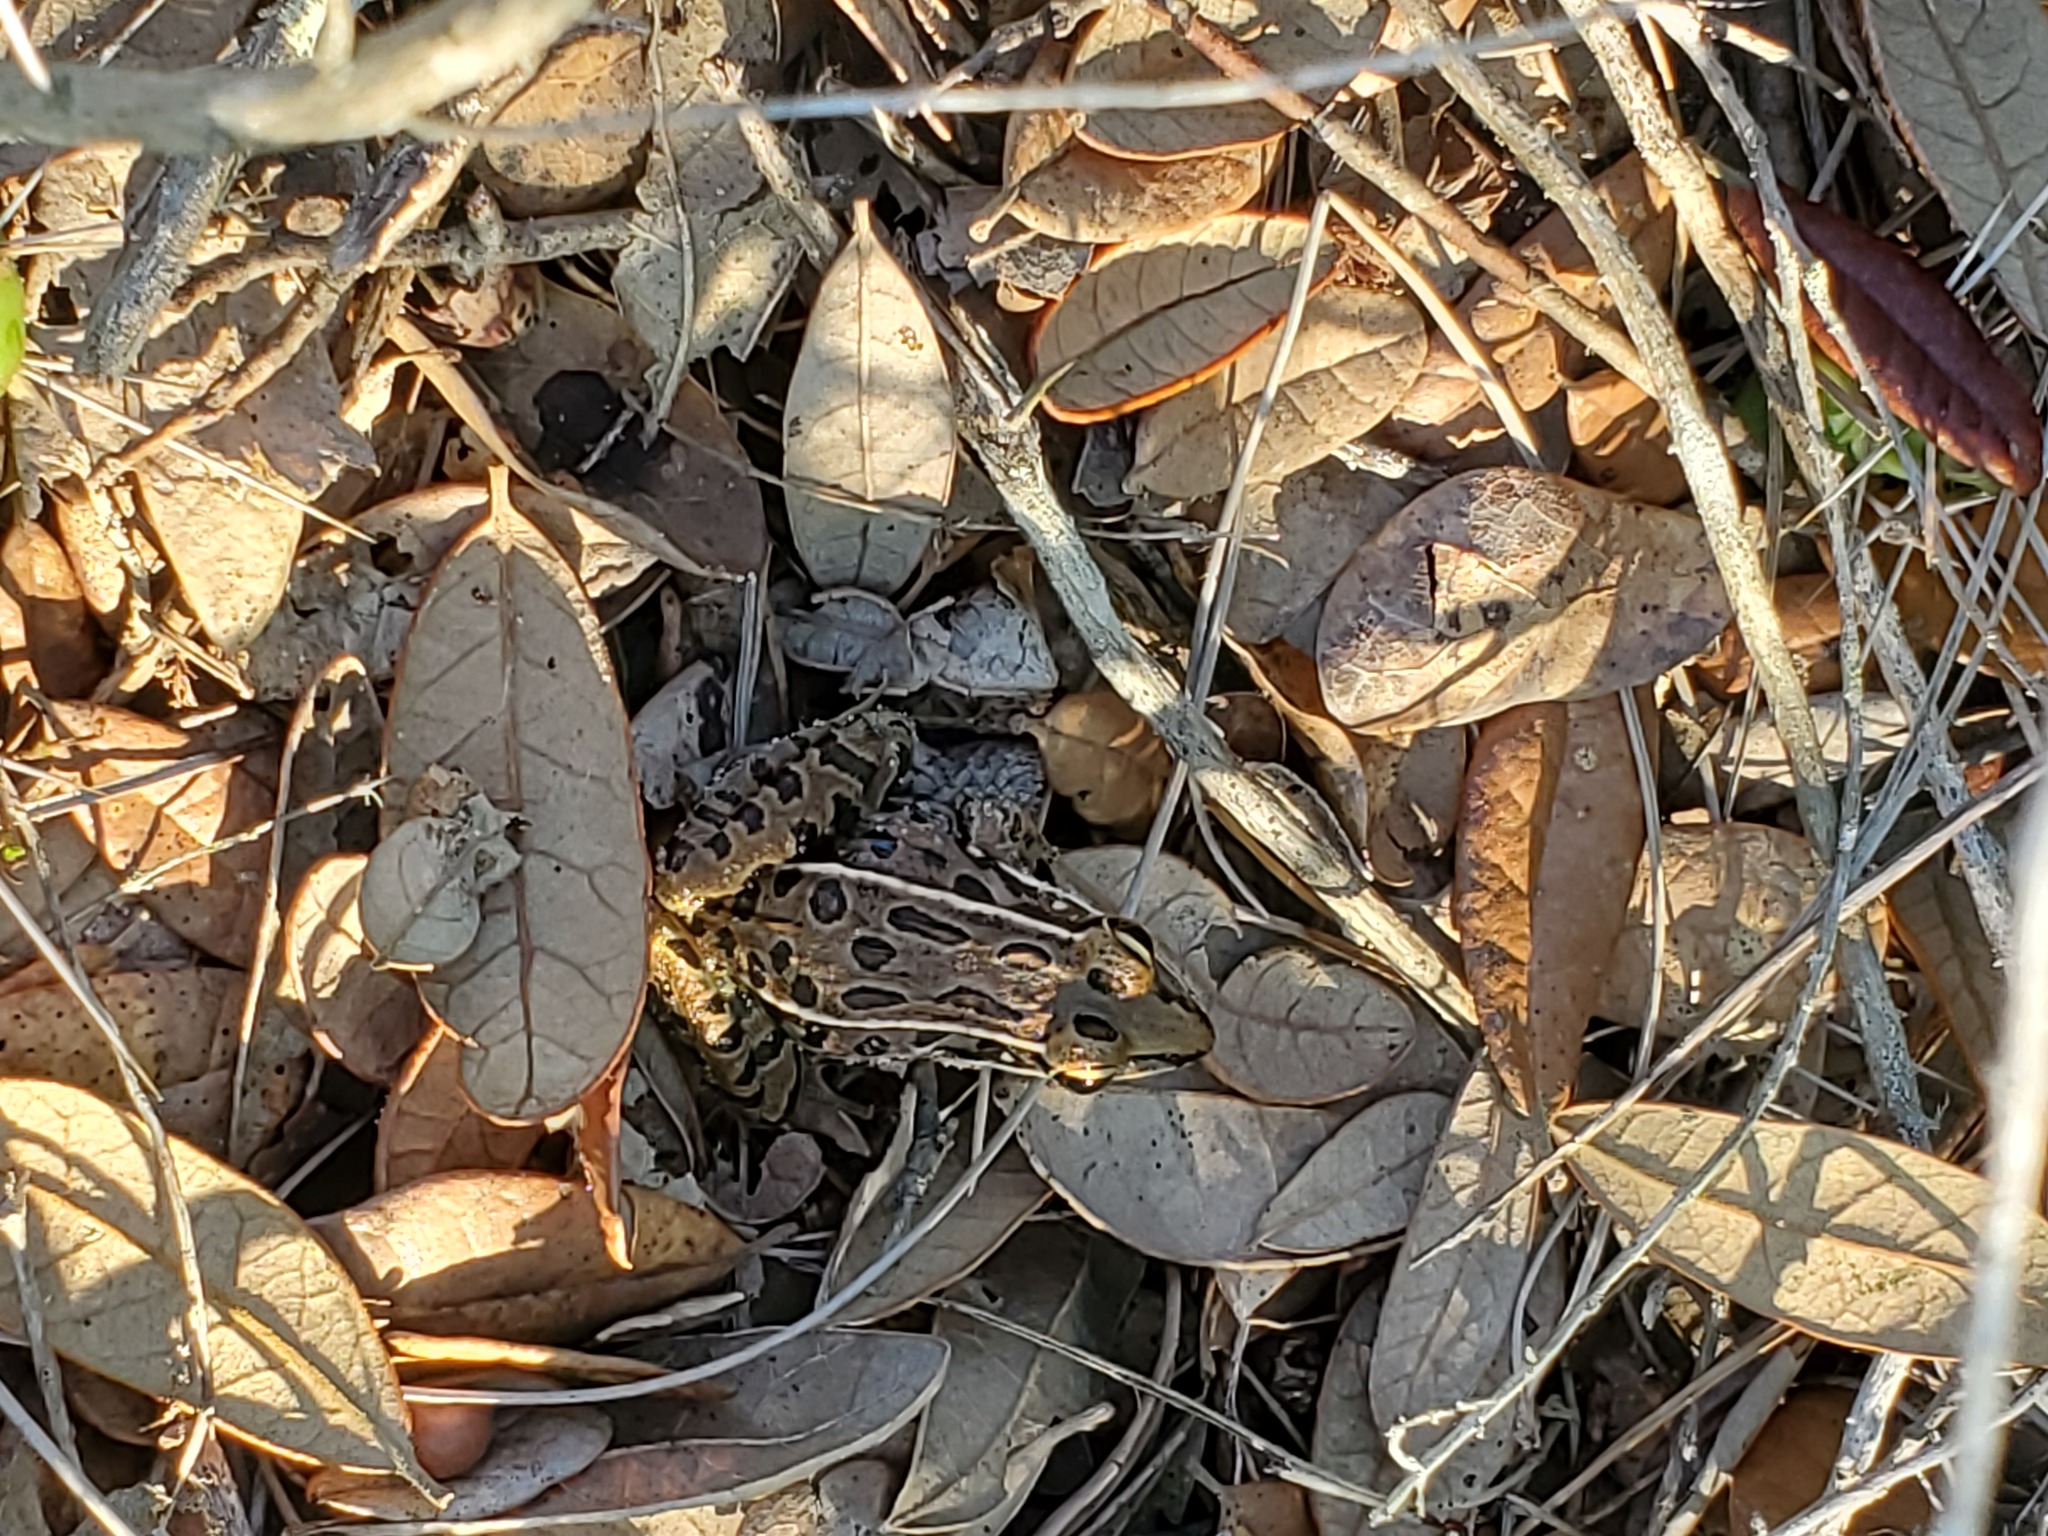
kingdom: Animalia
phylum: Chordata
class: Amphibia
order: Anura
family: Ranidae
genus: Lithobates
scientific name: Lithobates sphenocephalus
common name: Southern leopard frog
